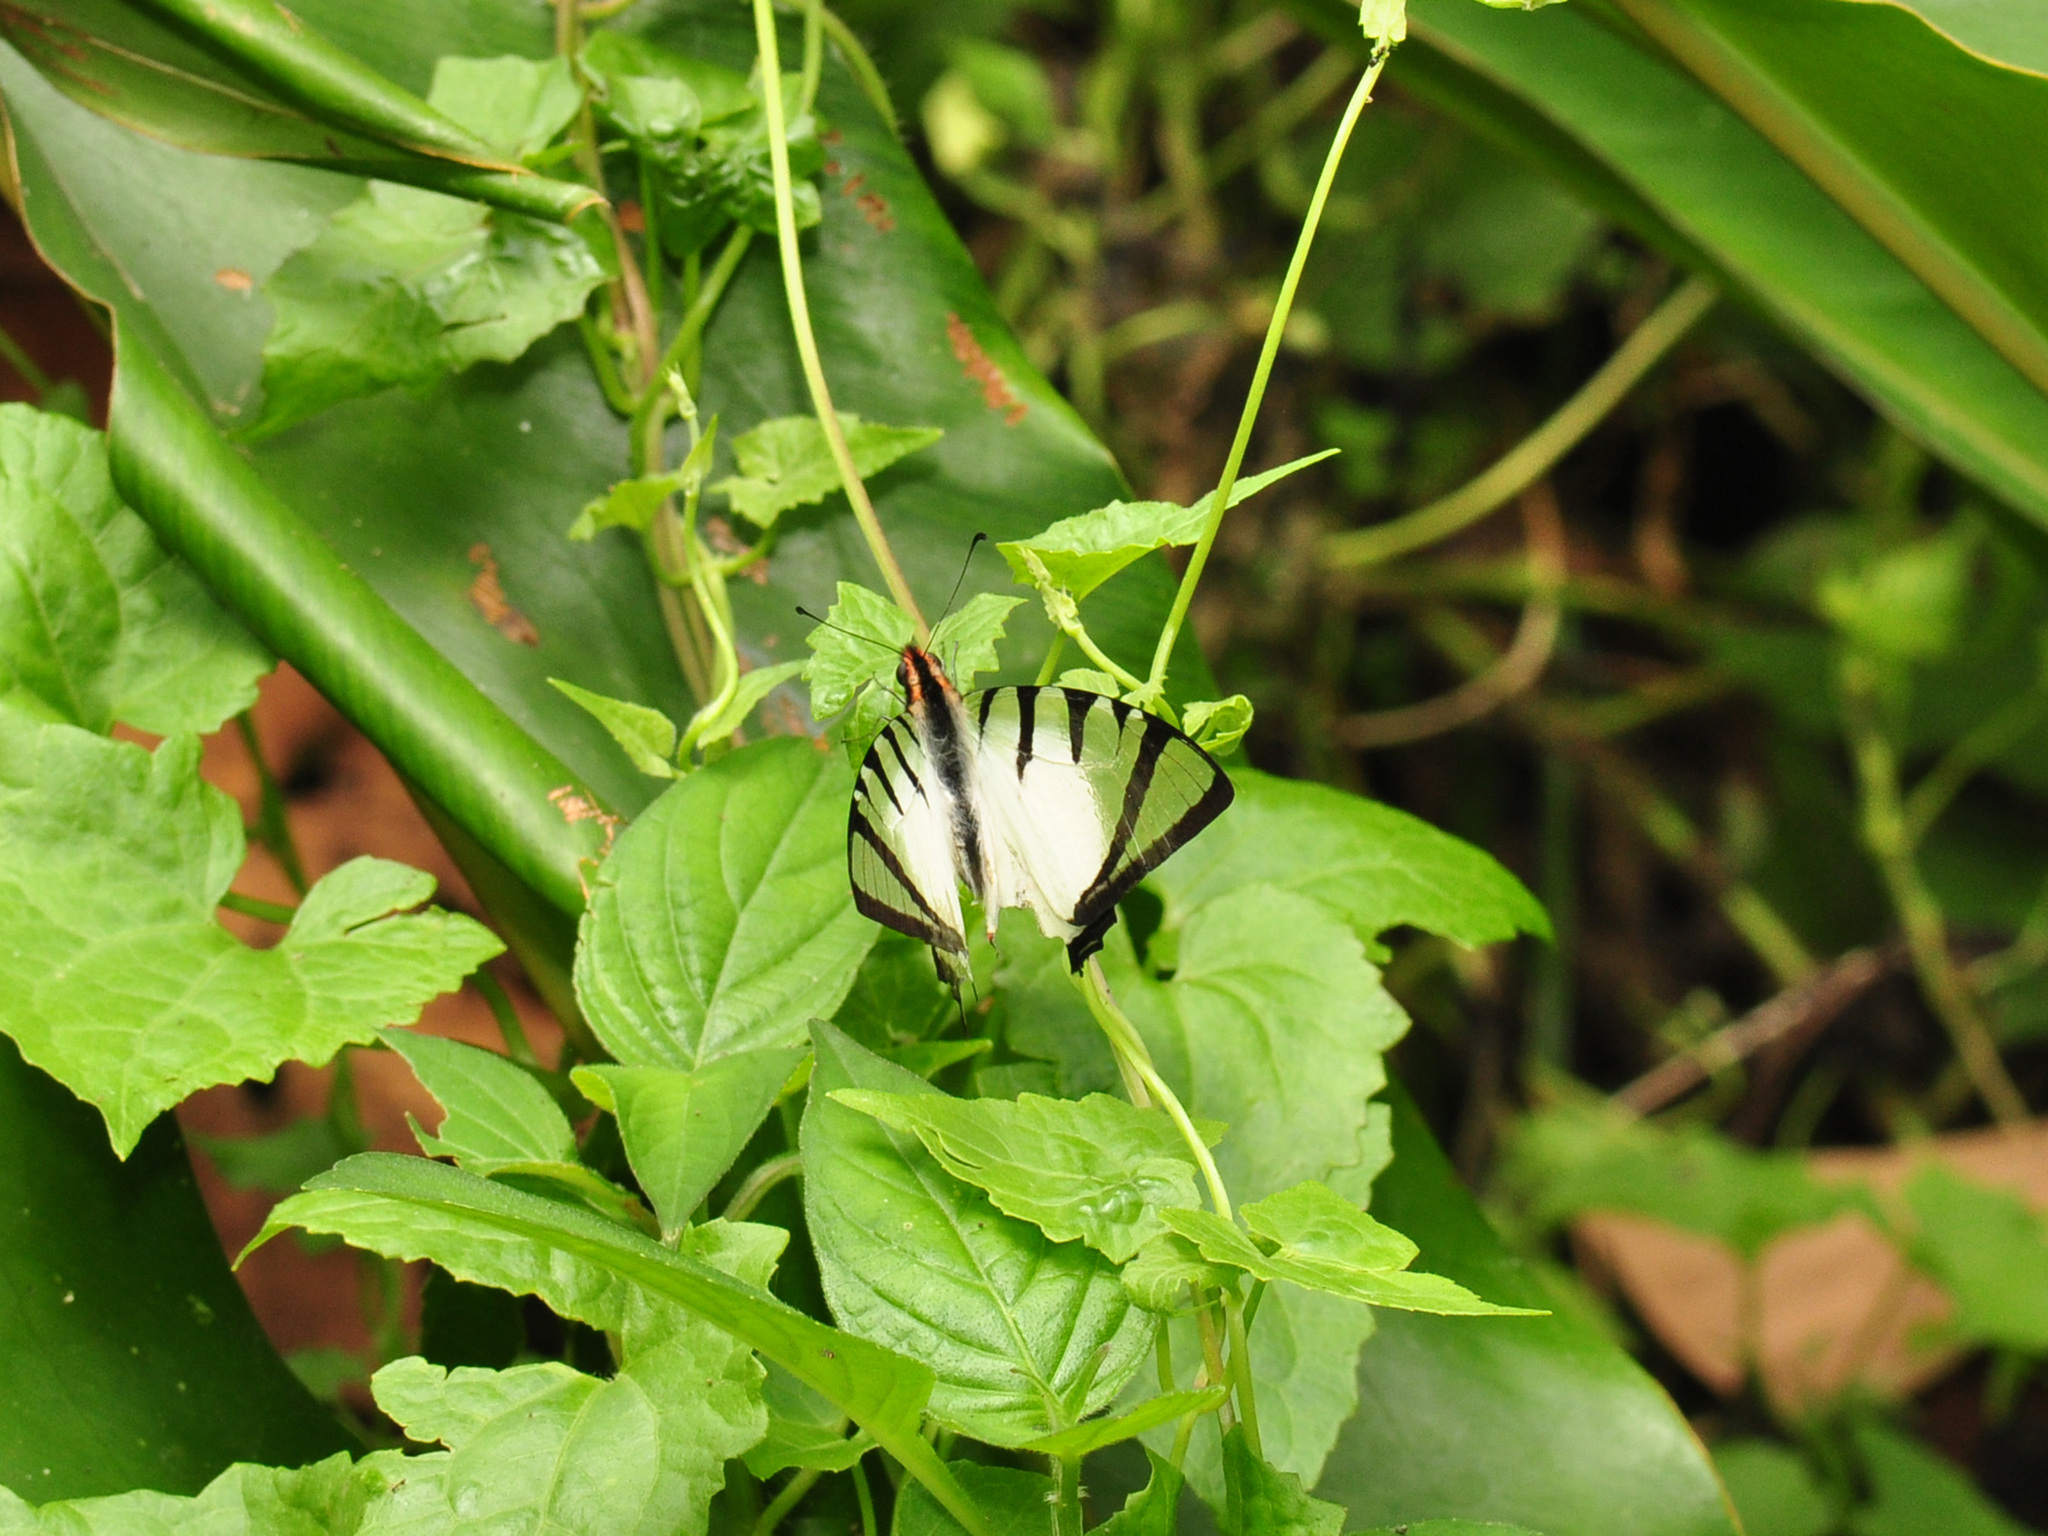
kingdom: Animalia
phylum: Arthropoda
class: Insecta
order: Lepidoptera
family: Papilionidae
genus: Graphium
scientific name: Graphium agetes
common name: Fourbar swordtail
